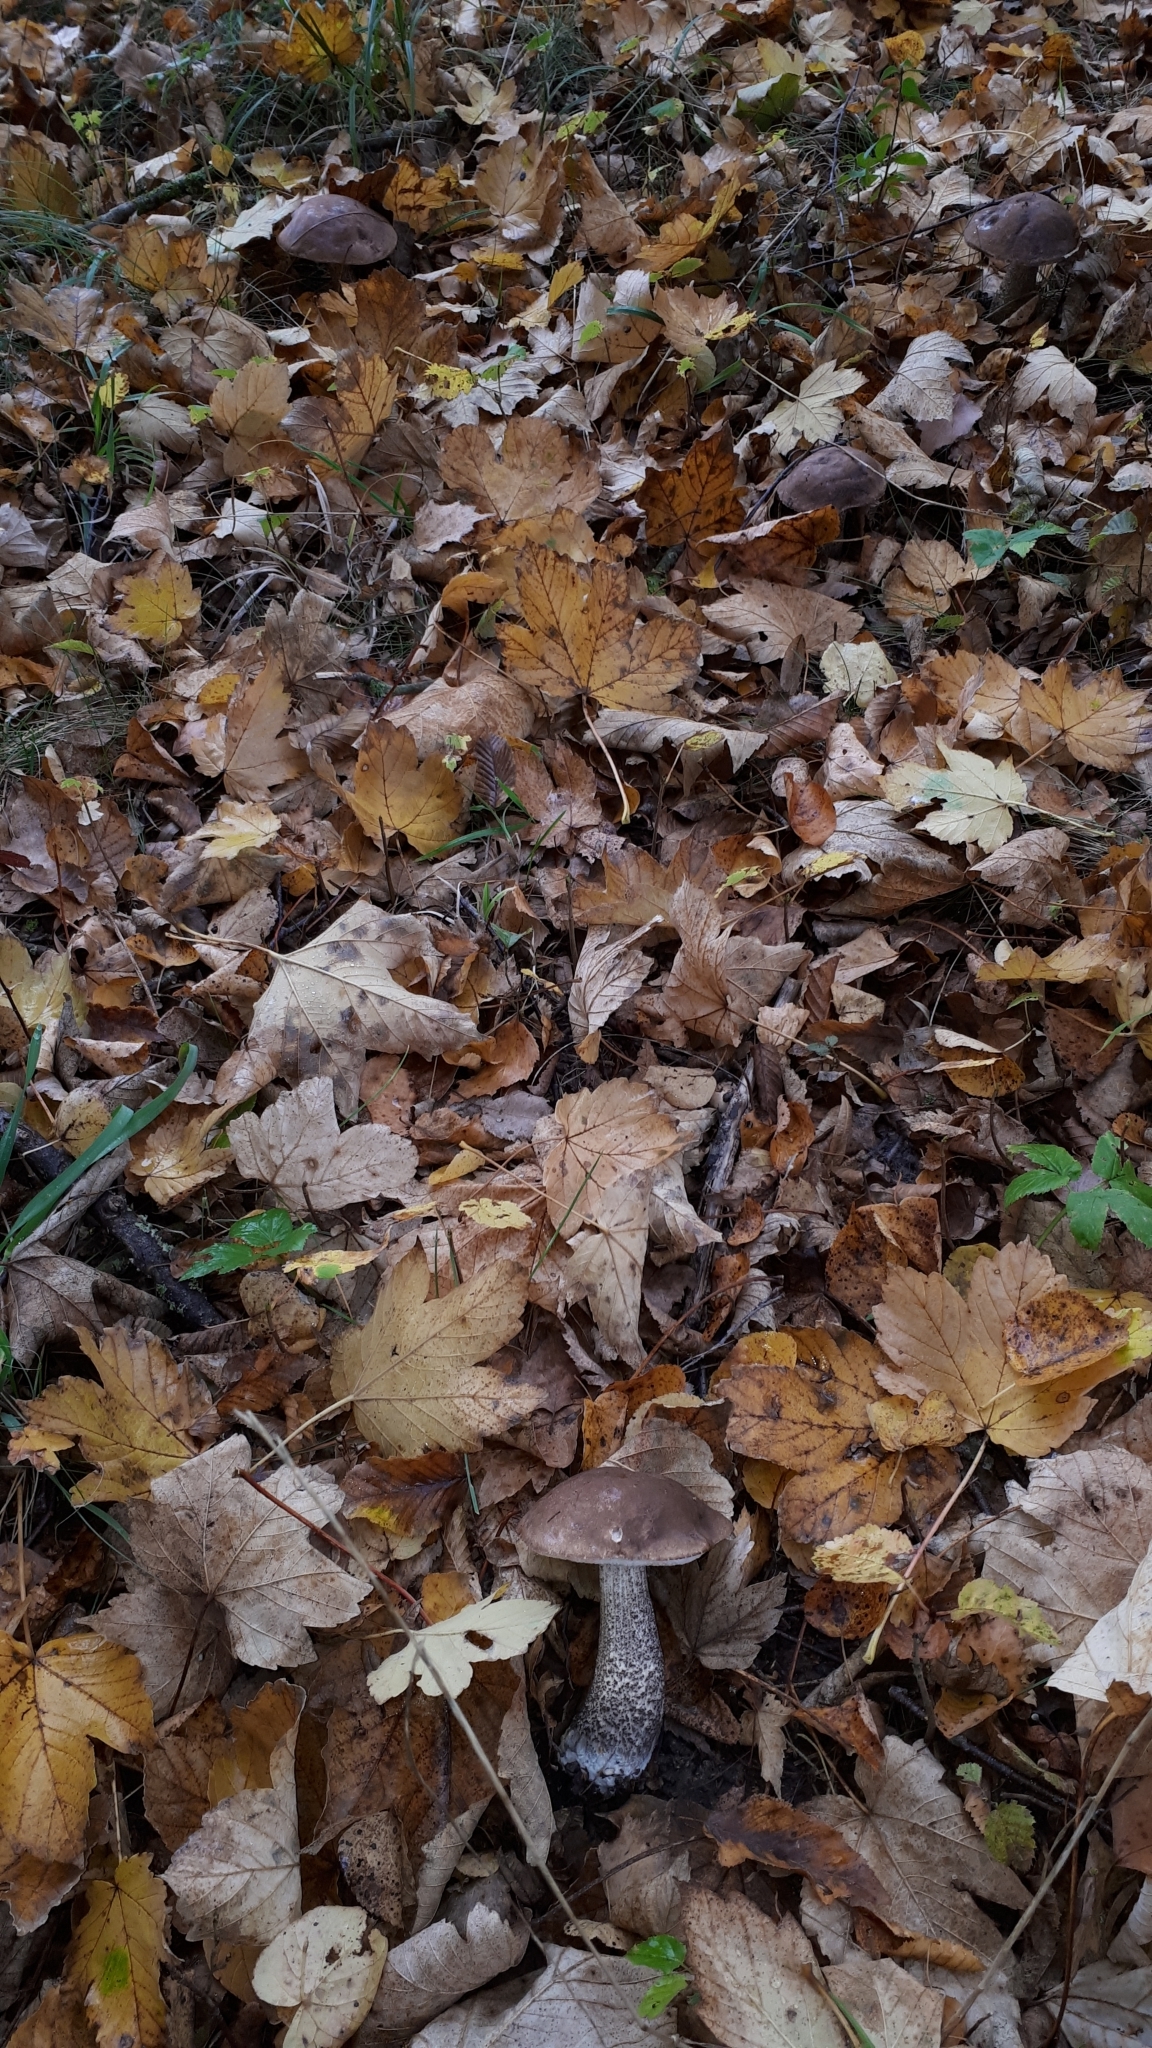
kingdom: Fungi
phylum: Basidiomycota
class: Agaricomycetes
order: Boletales
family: Boletaceae
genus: Leccinum
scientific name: Leccinum scabrum
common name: Blushing bolete
